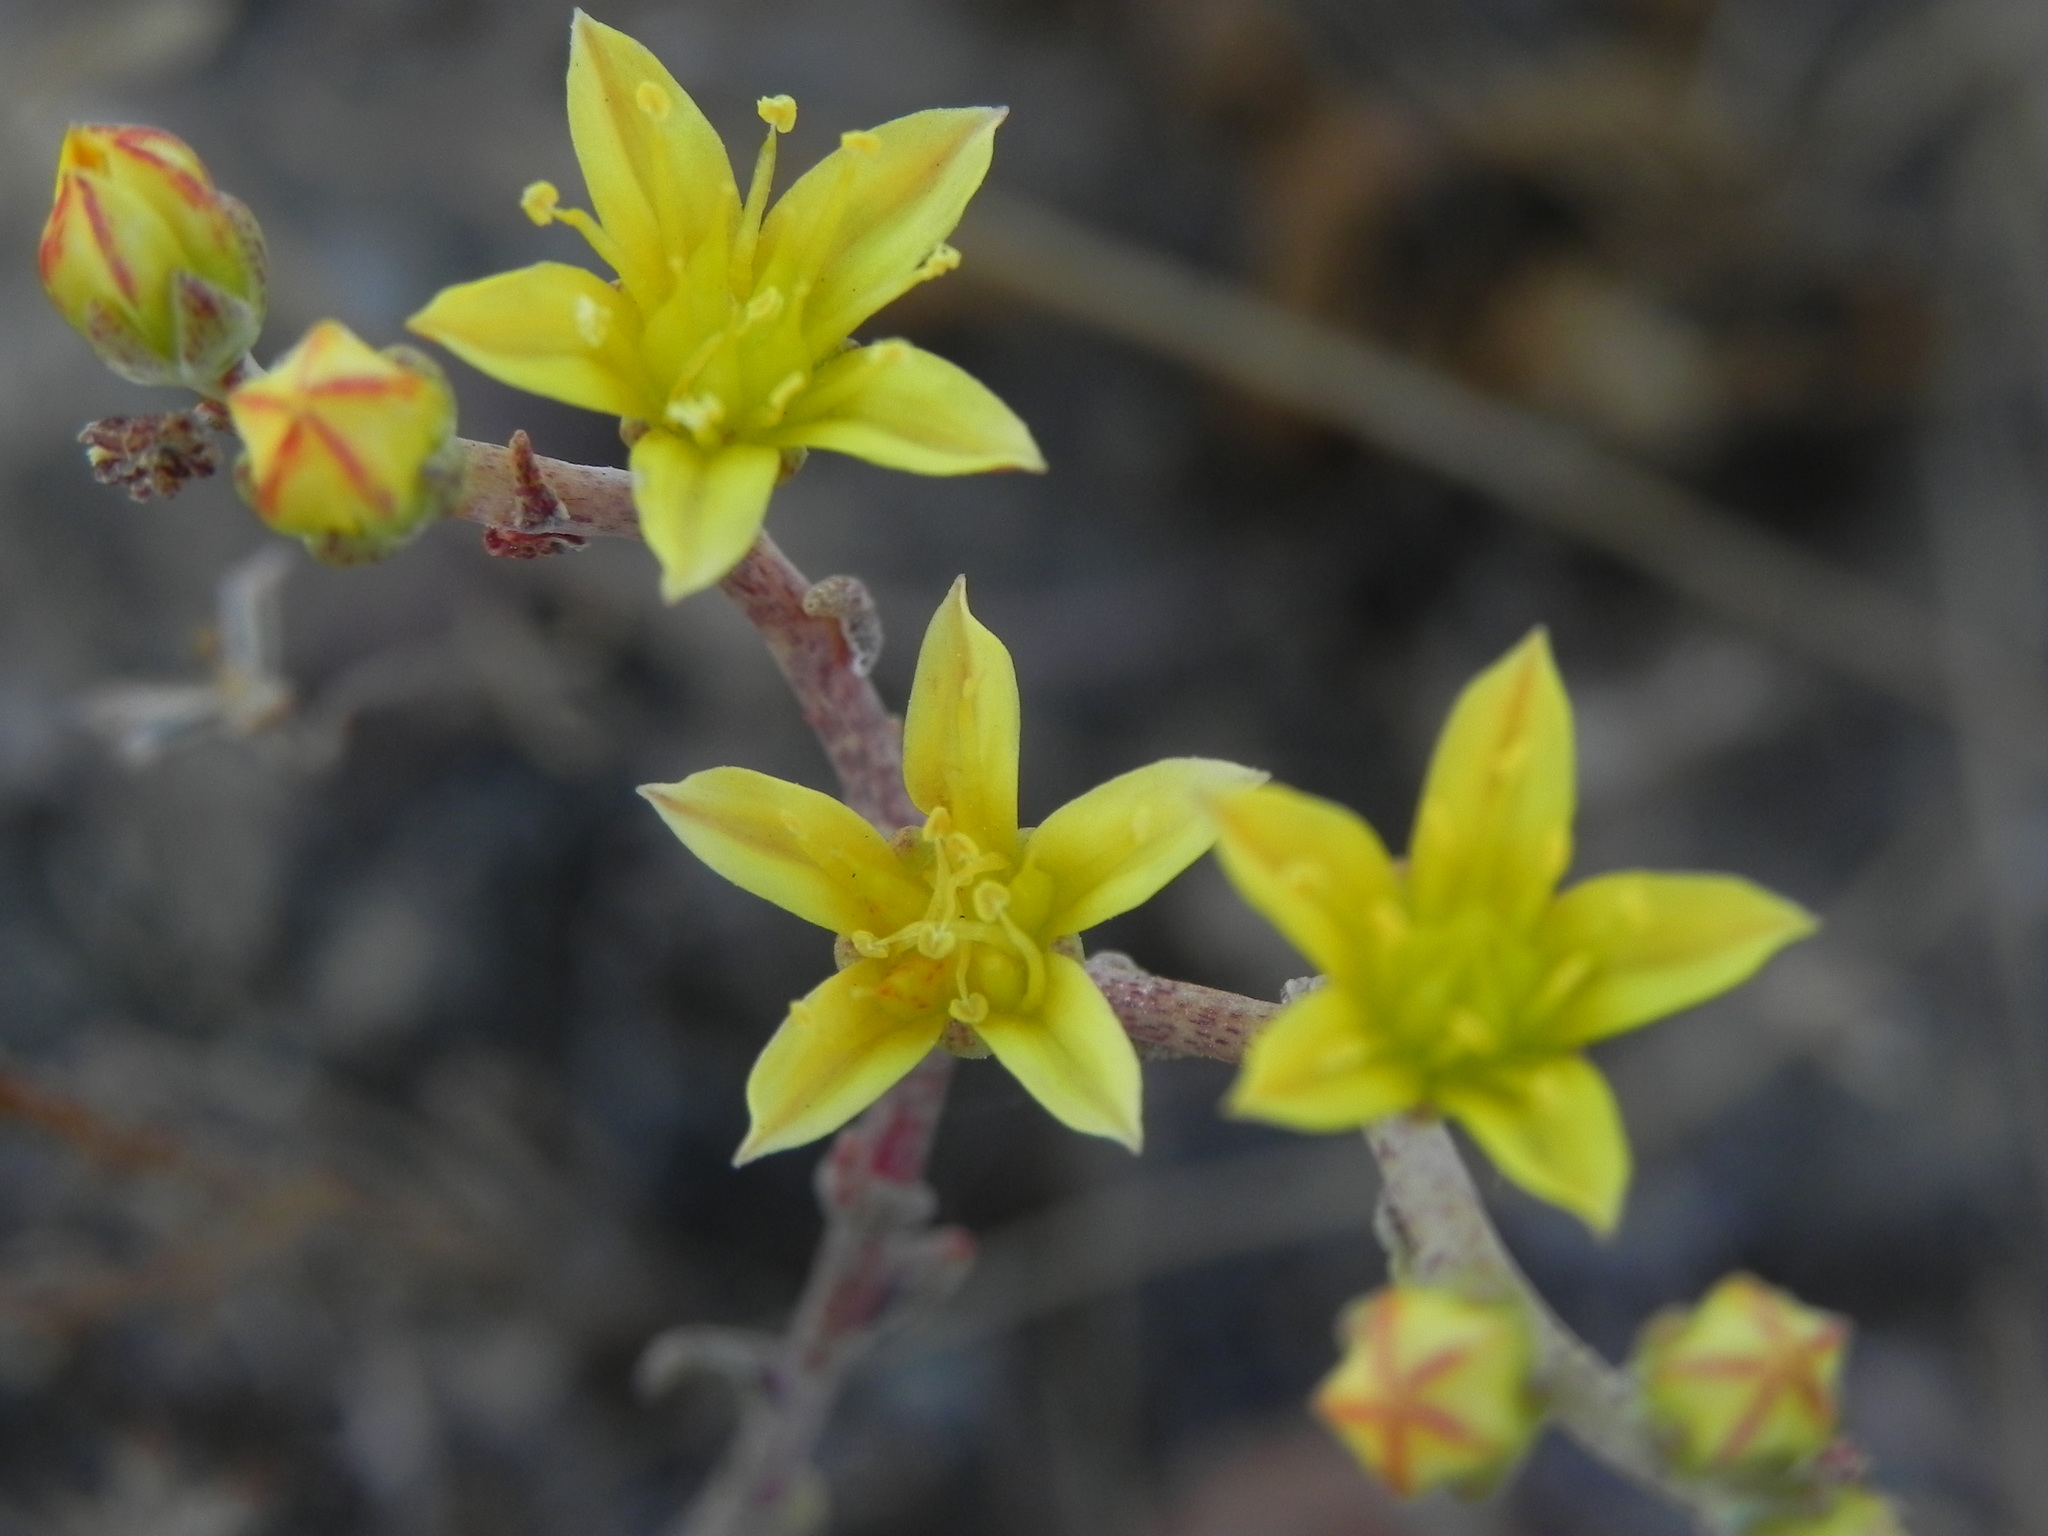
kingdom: Plantae
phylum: Tracheophyta
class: Magnoliopsida
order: Saxifragales
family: Crassulaceae
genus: Dudleya
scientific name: Dudleya variegata
